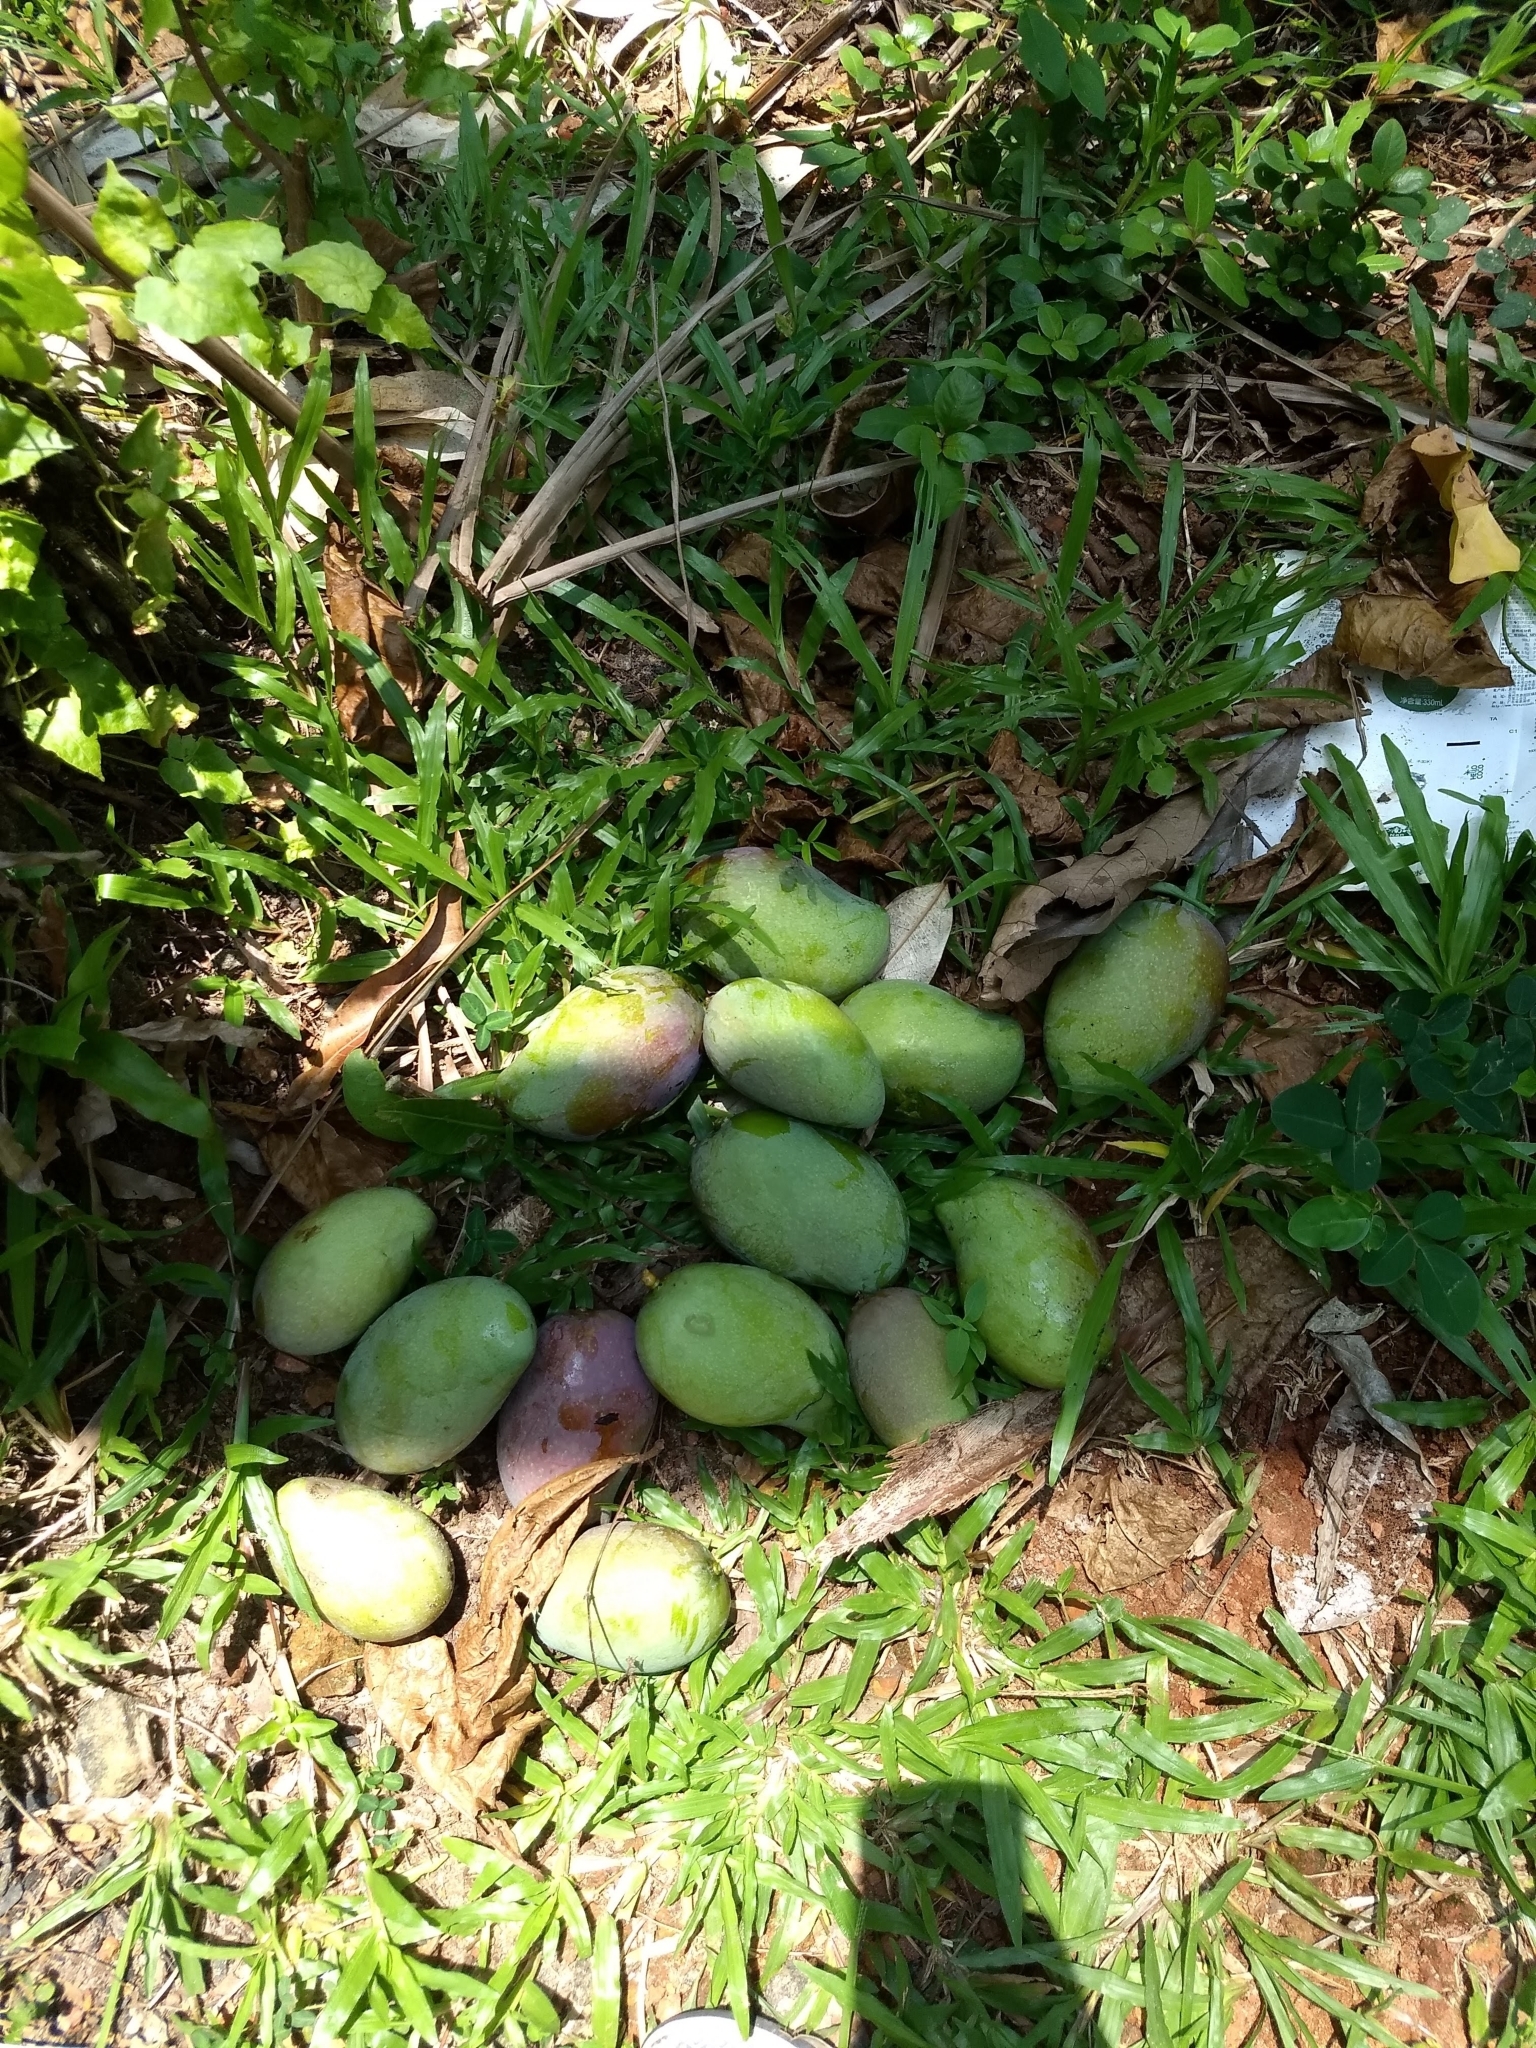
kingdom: Plantae
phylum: Tracheophyta
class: Magnoliopsida
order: Sapindales
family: Anacardiaceae
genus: Mangifera
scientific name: Mangifera indica
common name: Mango
